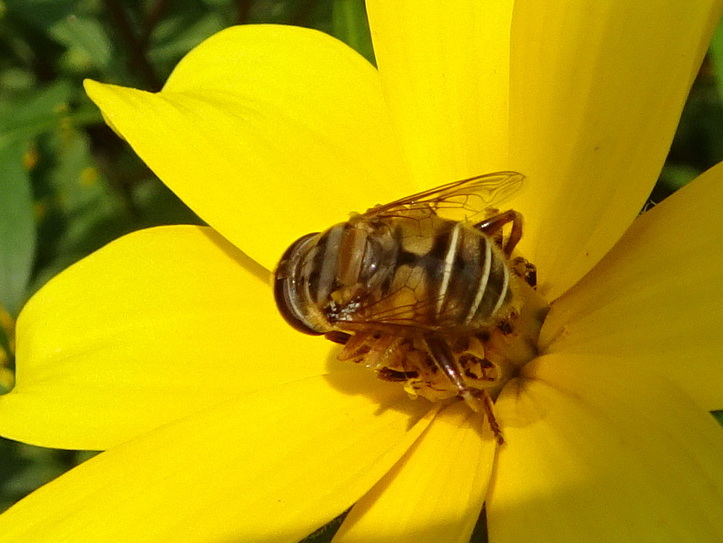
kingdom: Animalia
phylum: Arthropoda
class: Insecta
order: Diptera
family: Syrphidae
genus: Palpada
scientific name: Palpada vinetorum
